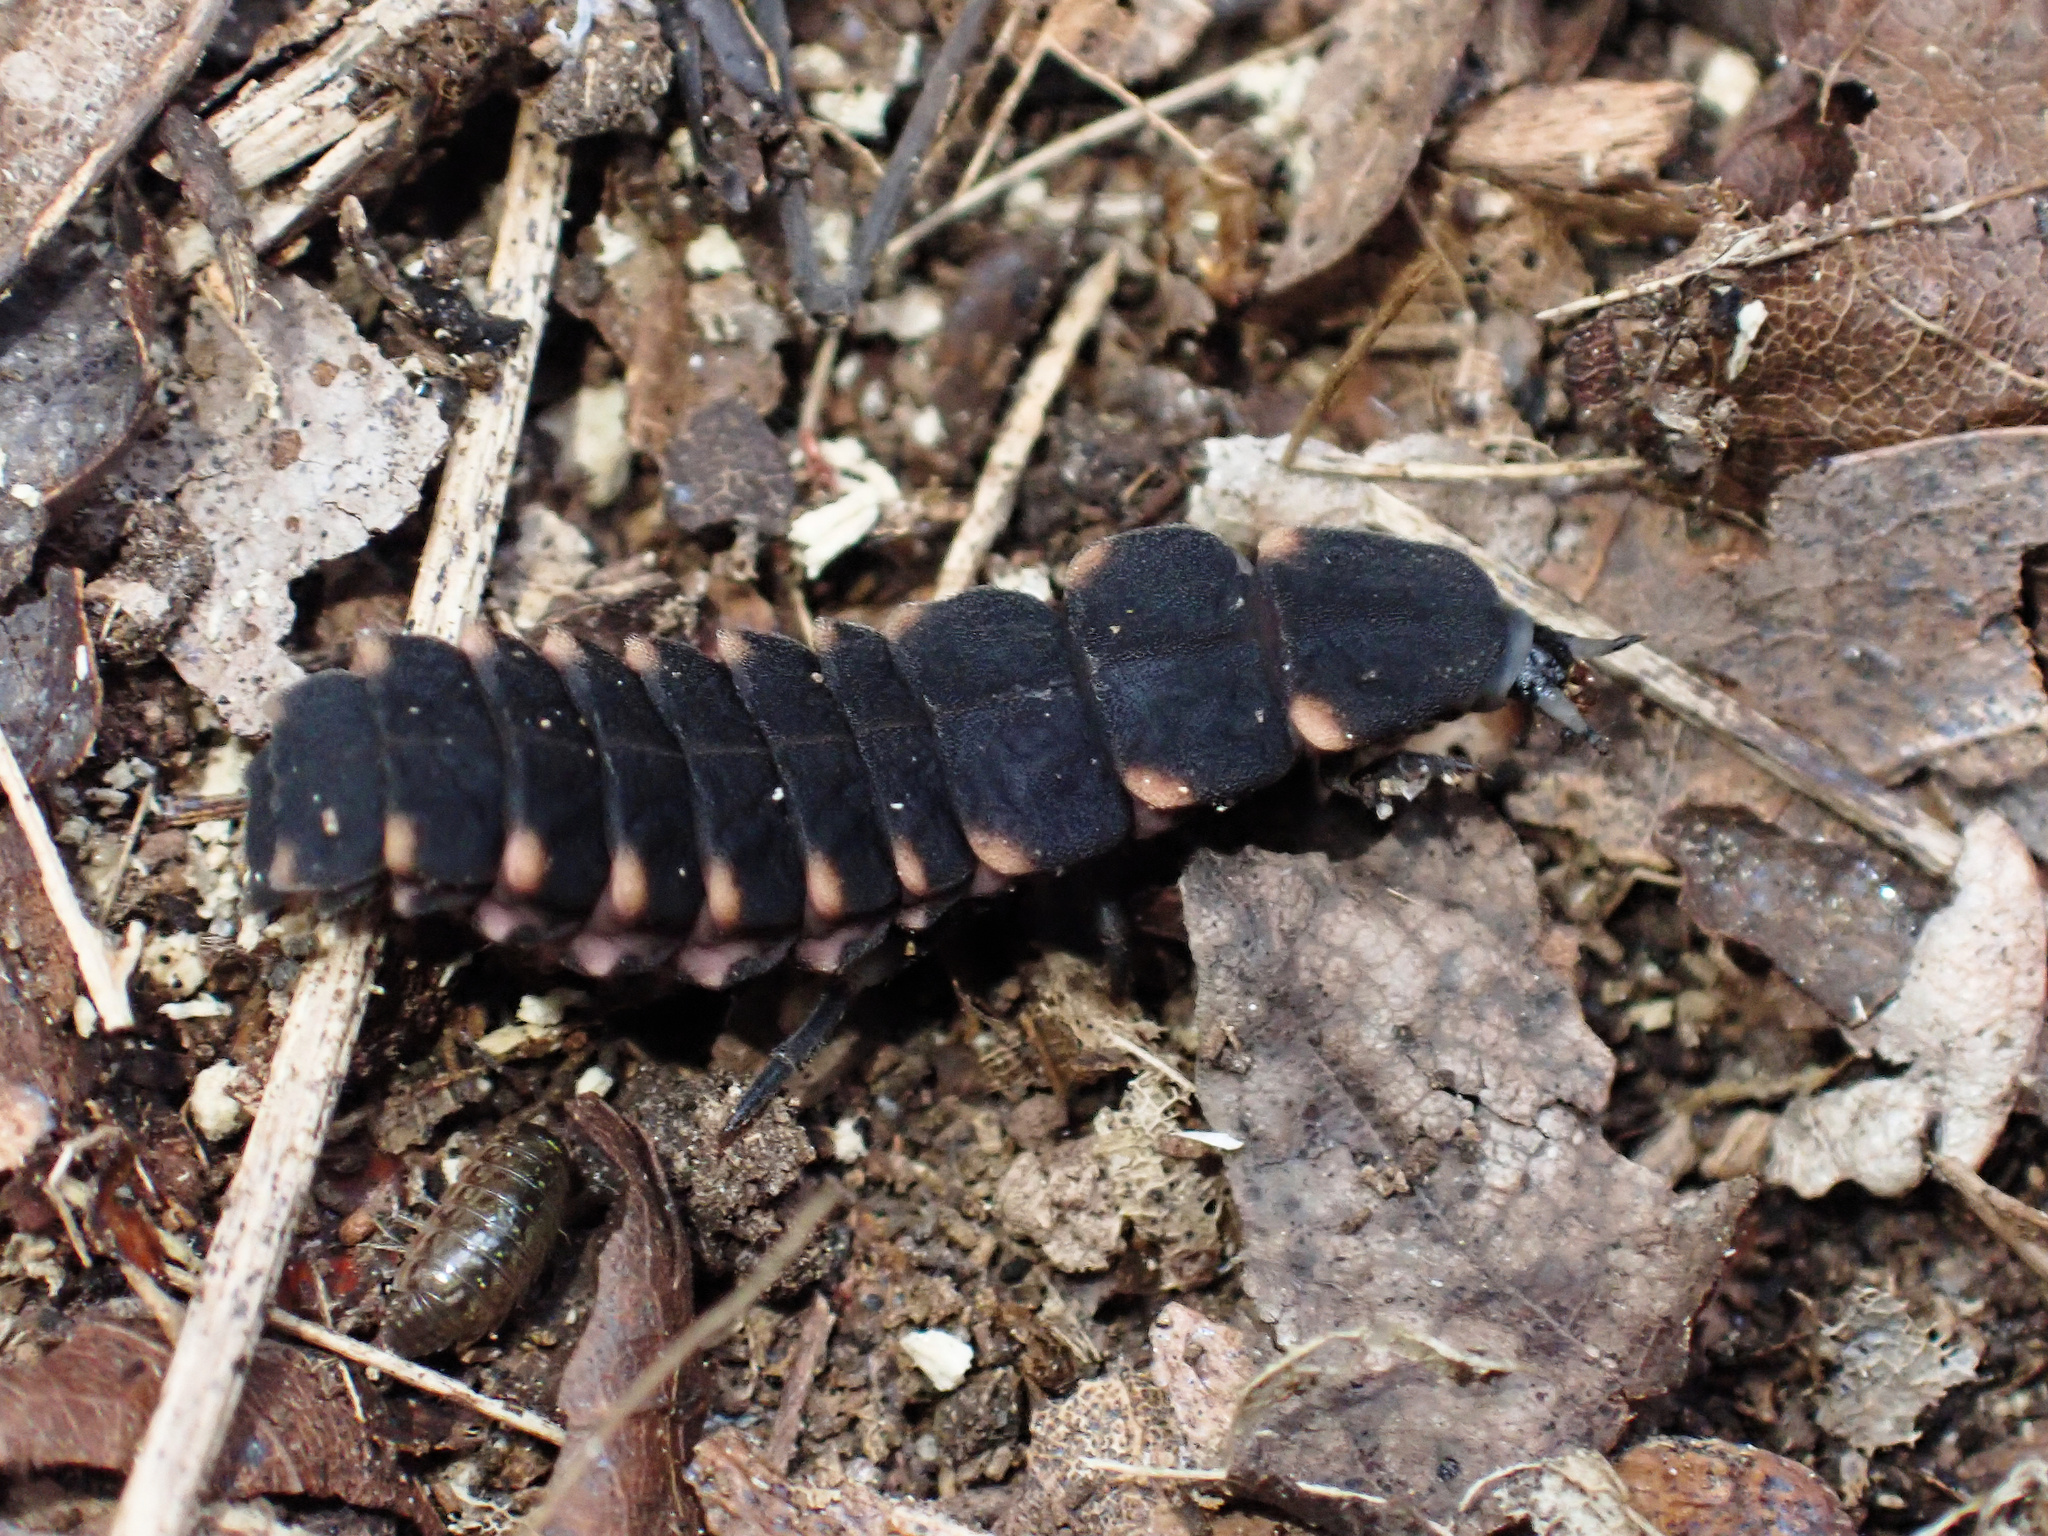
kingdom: Animalia
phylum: Arthropoda
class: Insecta
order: Coleoptera
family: Lampyridae
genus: Lampyris
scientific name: Lampyris noctiluca
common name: Glow-worm
